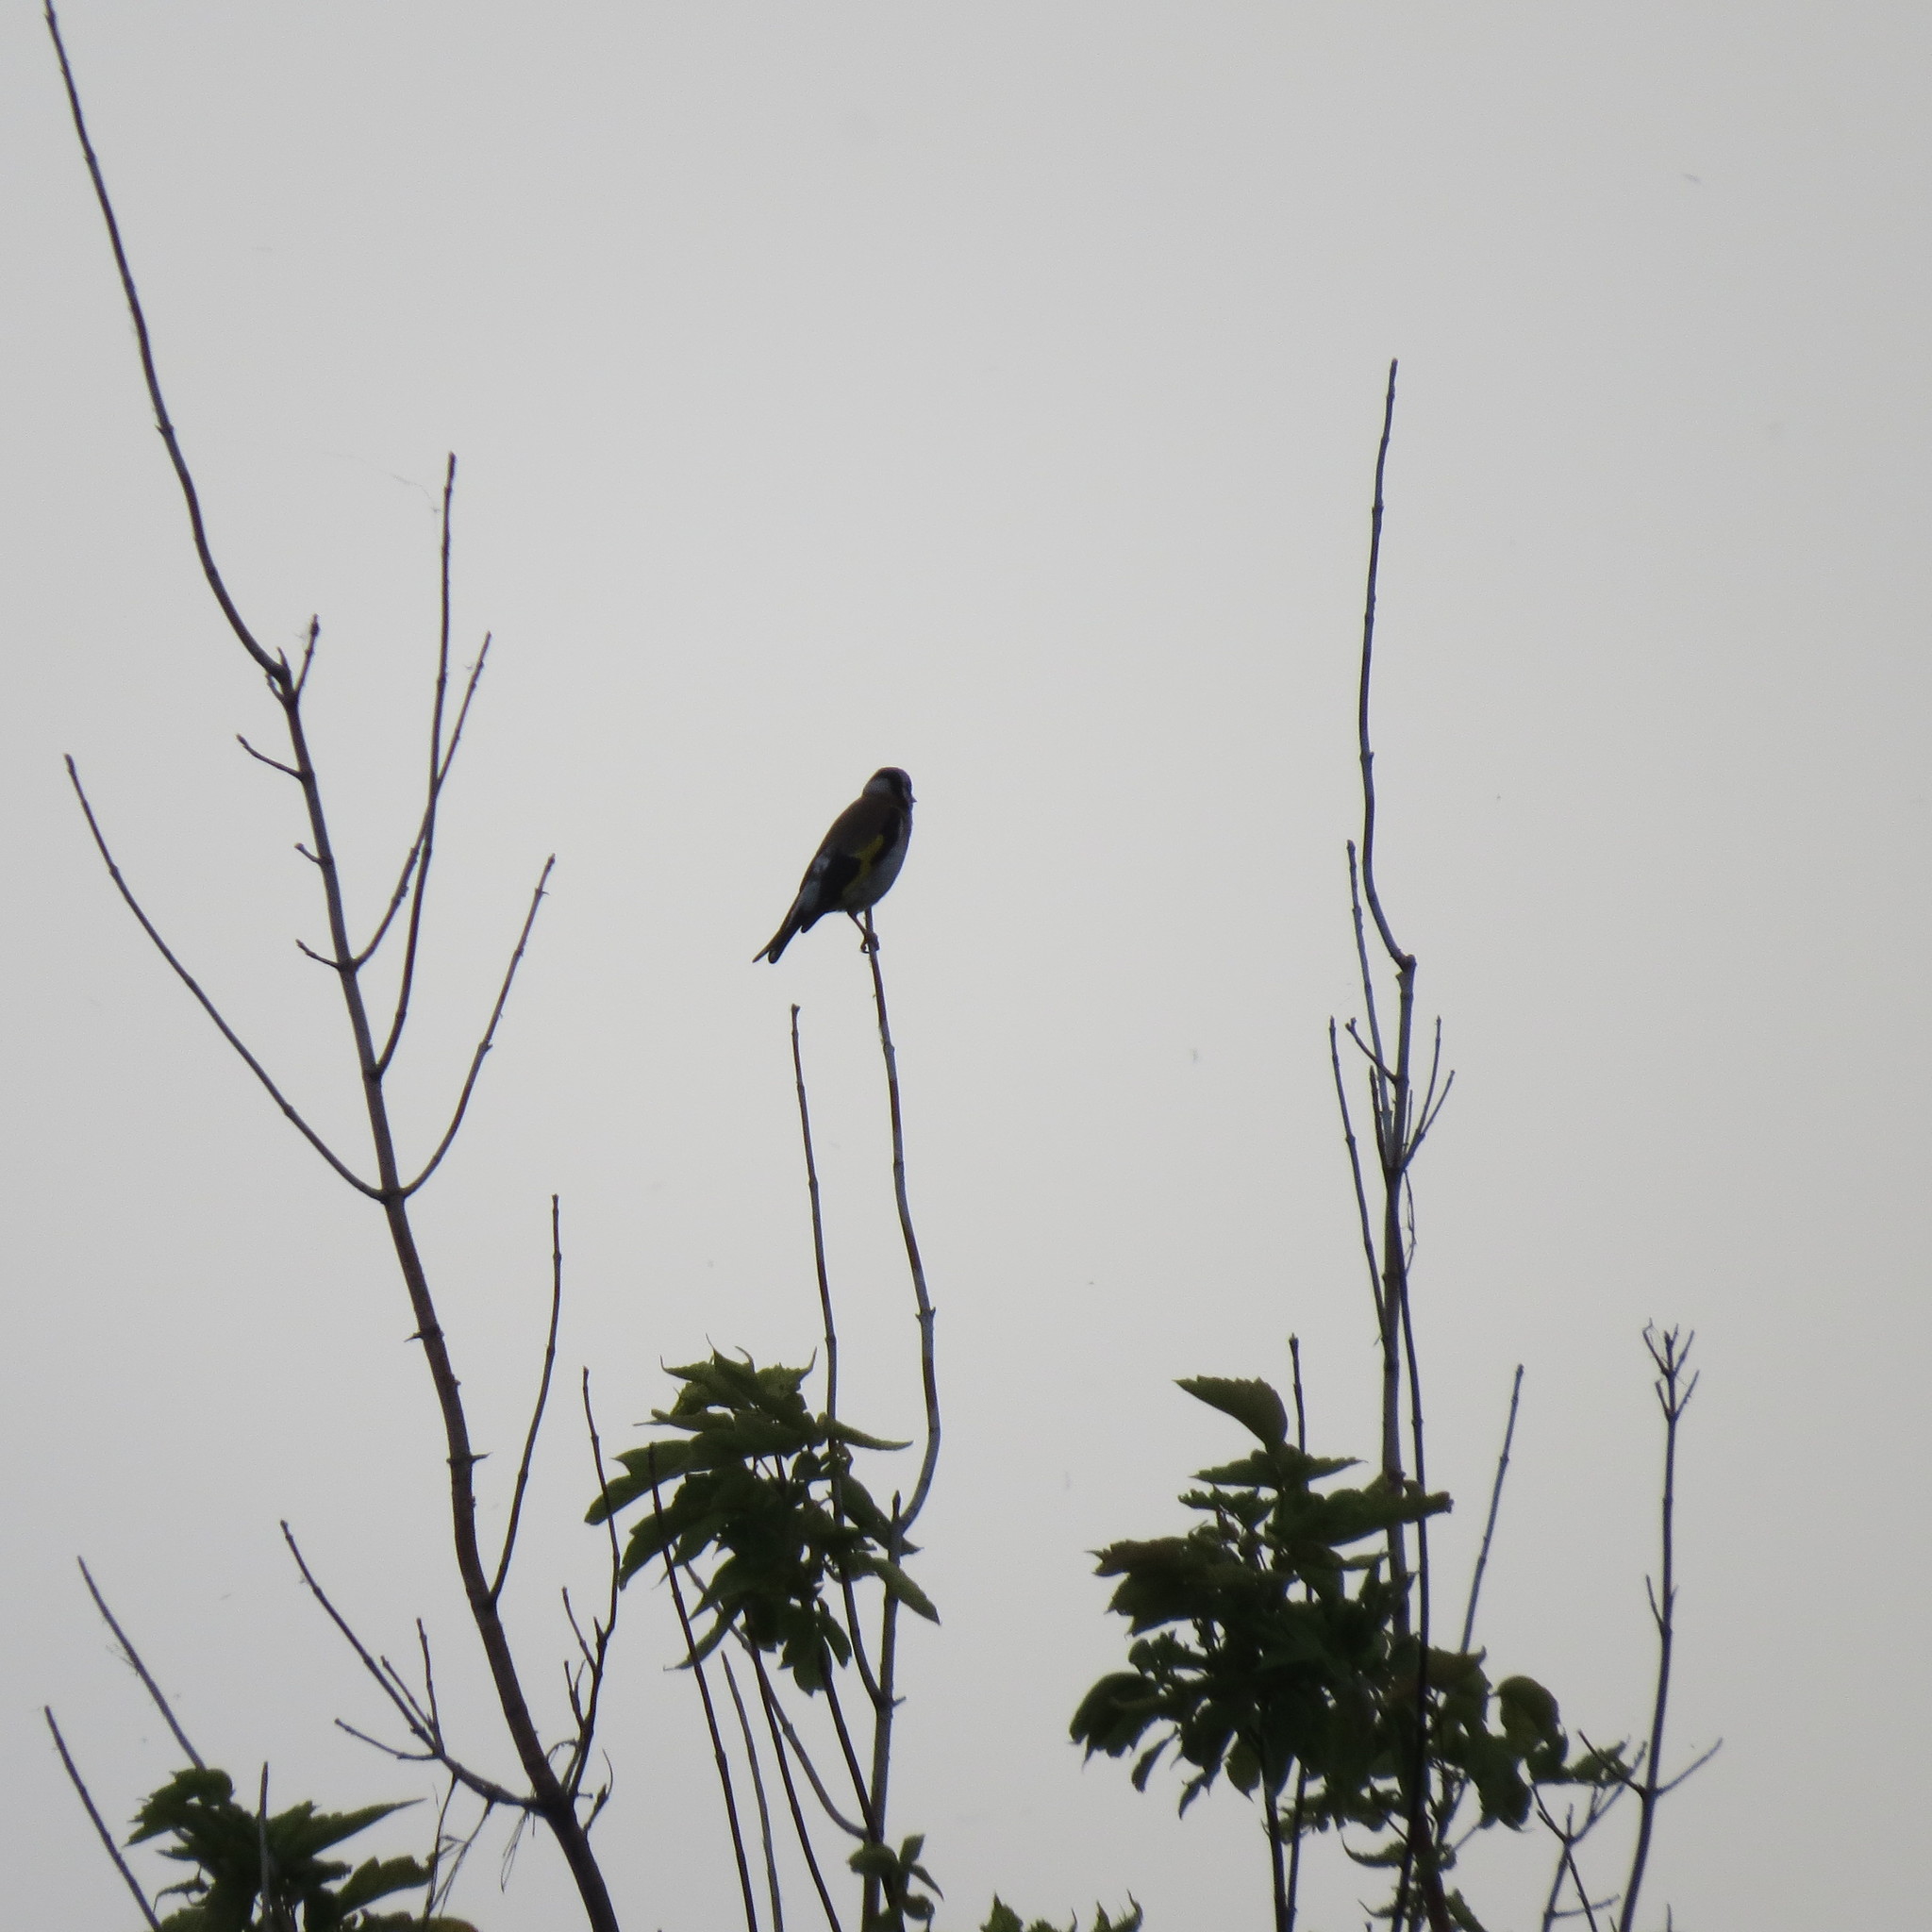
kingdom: Animalia
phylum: Chordata
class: Aves
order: Passeriformes
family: Fringillidae
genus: Carduelis
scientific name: Carduelis carduelis
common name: European goldfinch
